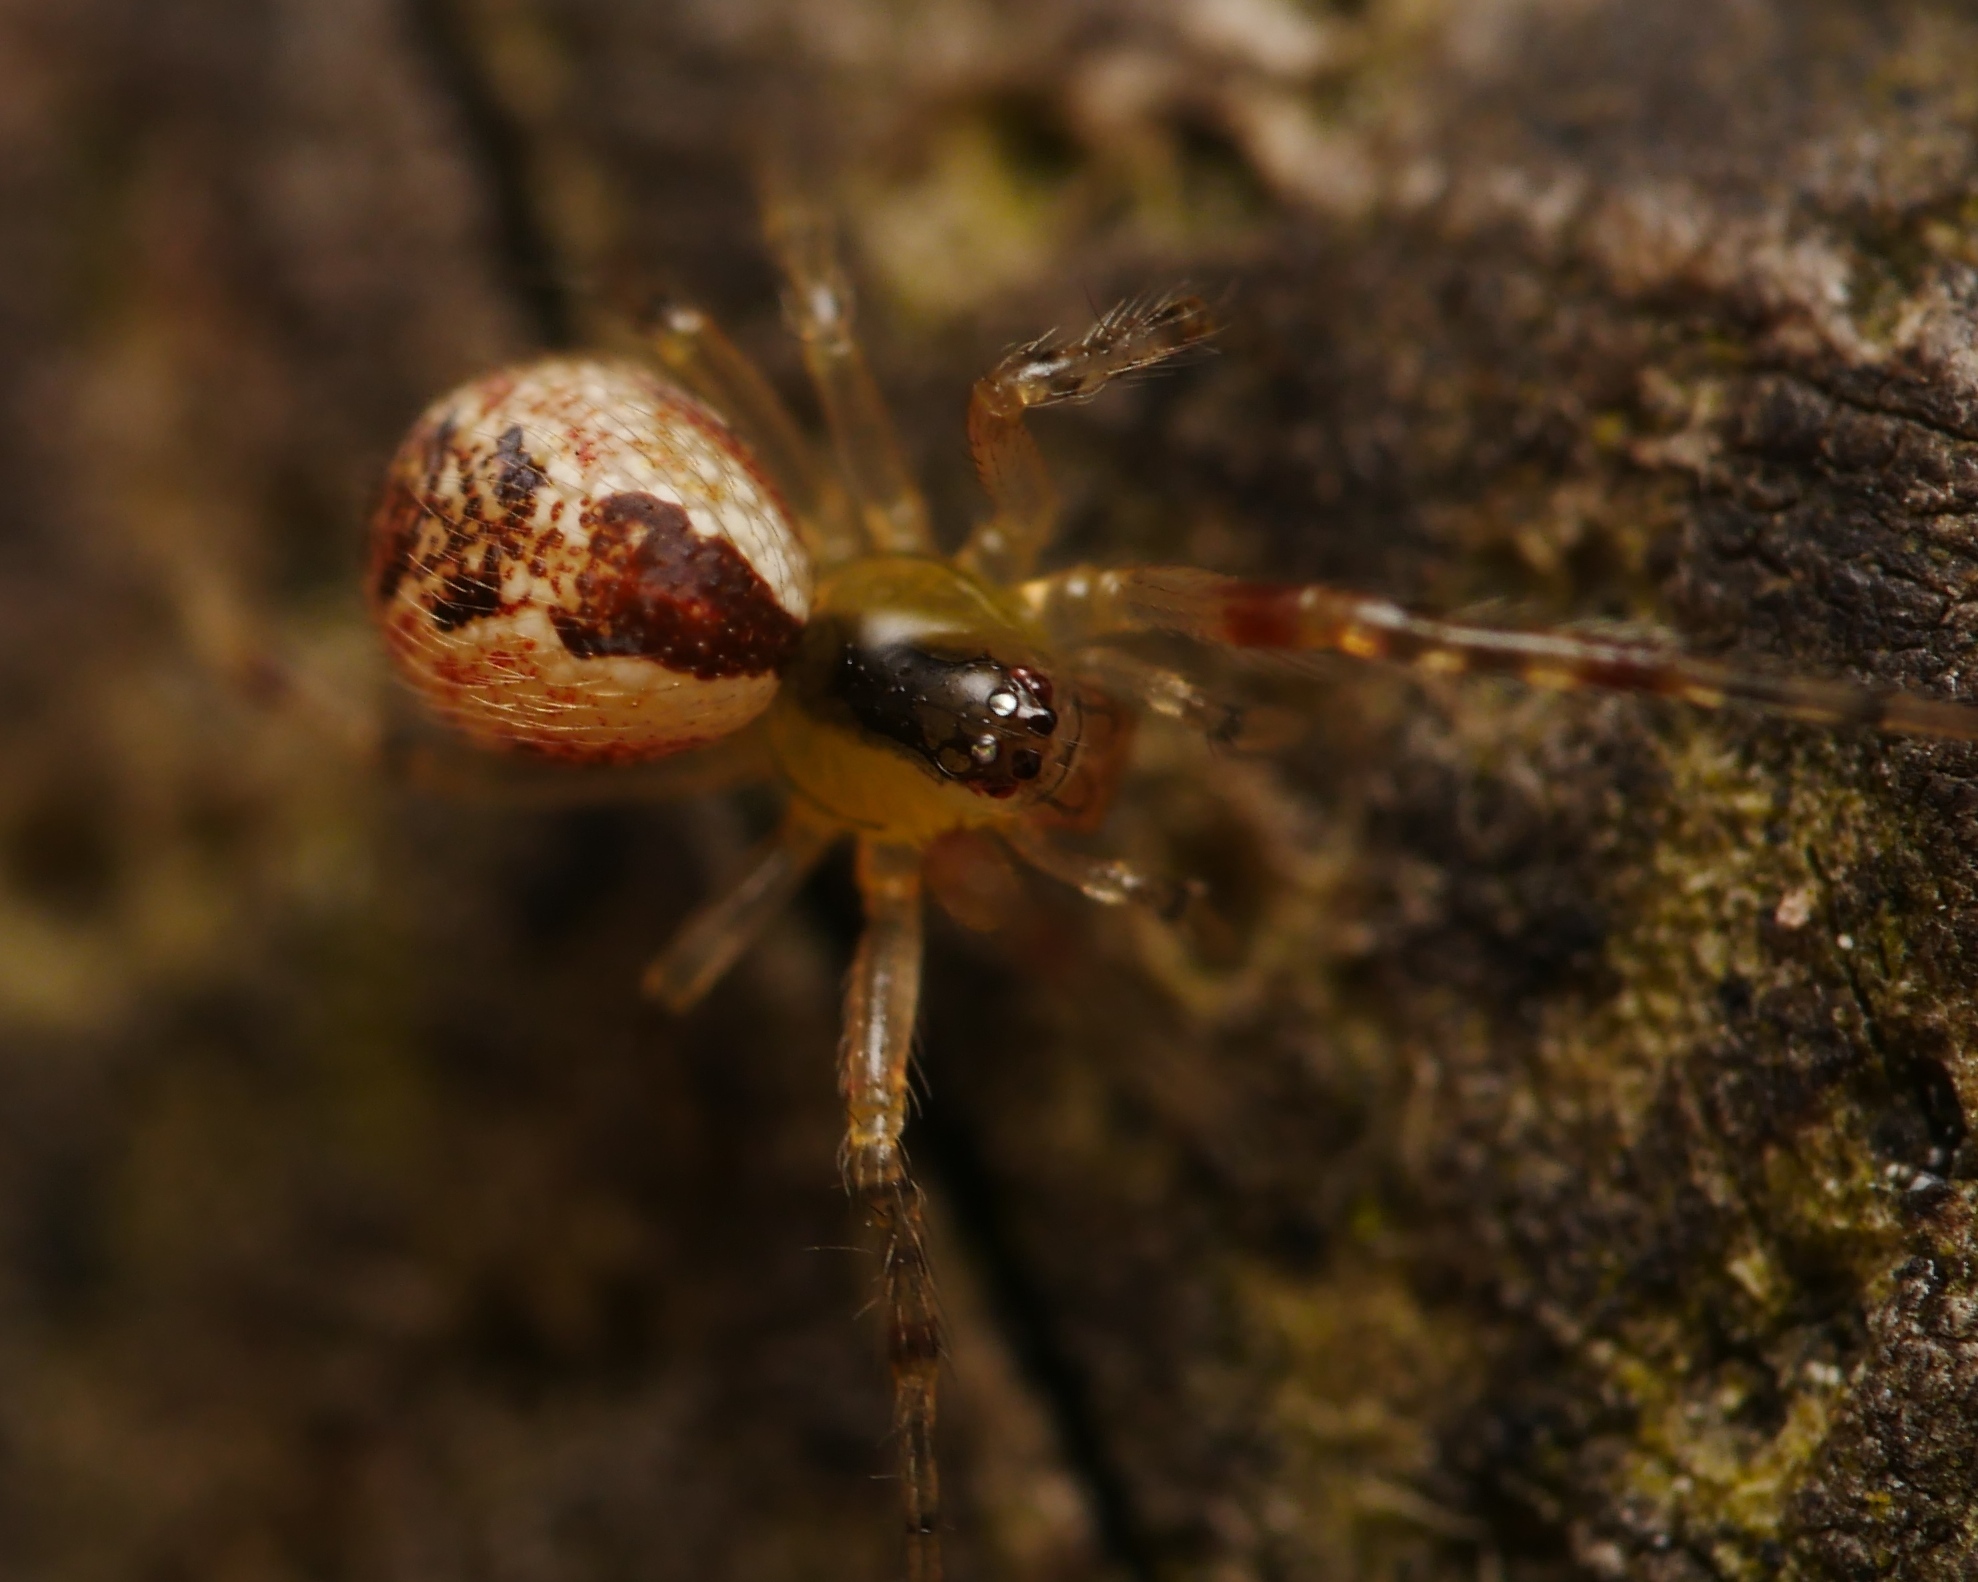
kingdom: Animalia
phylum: Arthropoda
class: Arachnida
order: Araneae
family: Theridiidae
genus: Anelosimus
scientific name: Anelosimus vittatus
